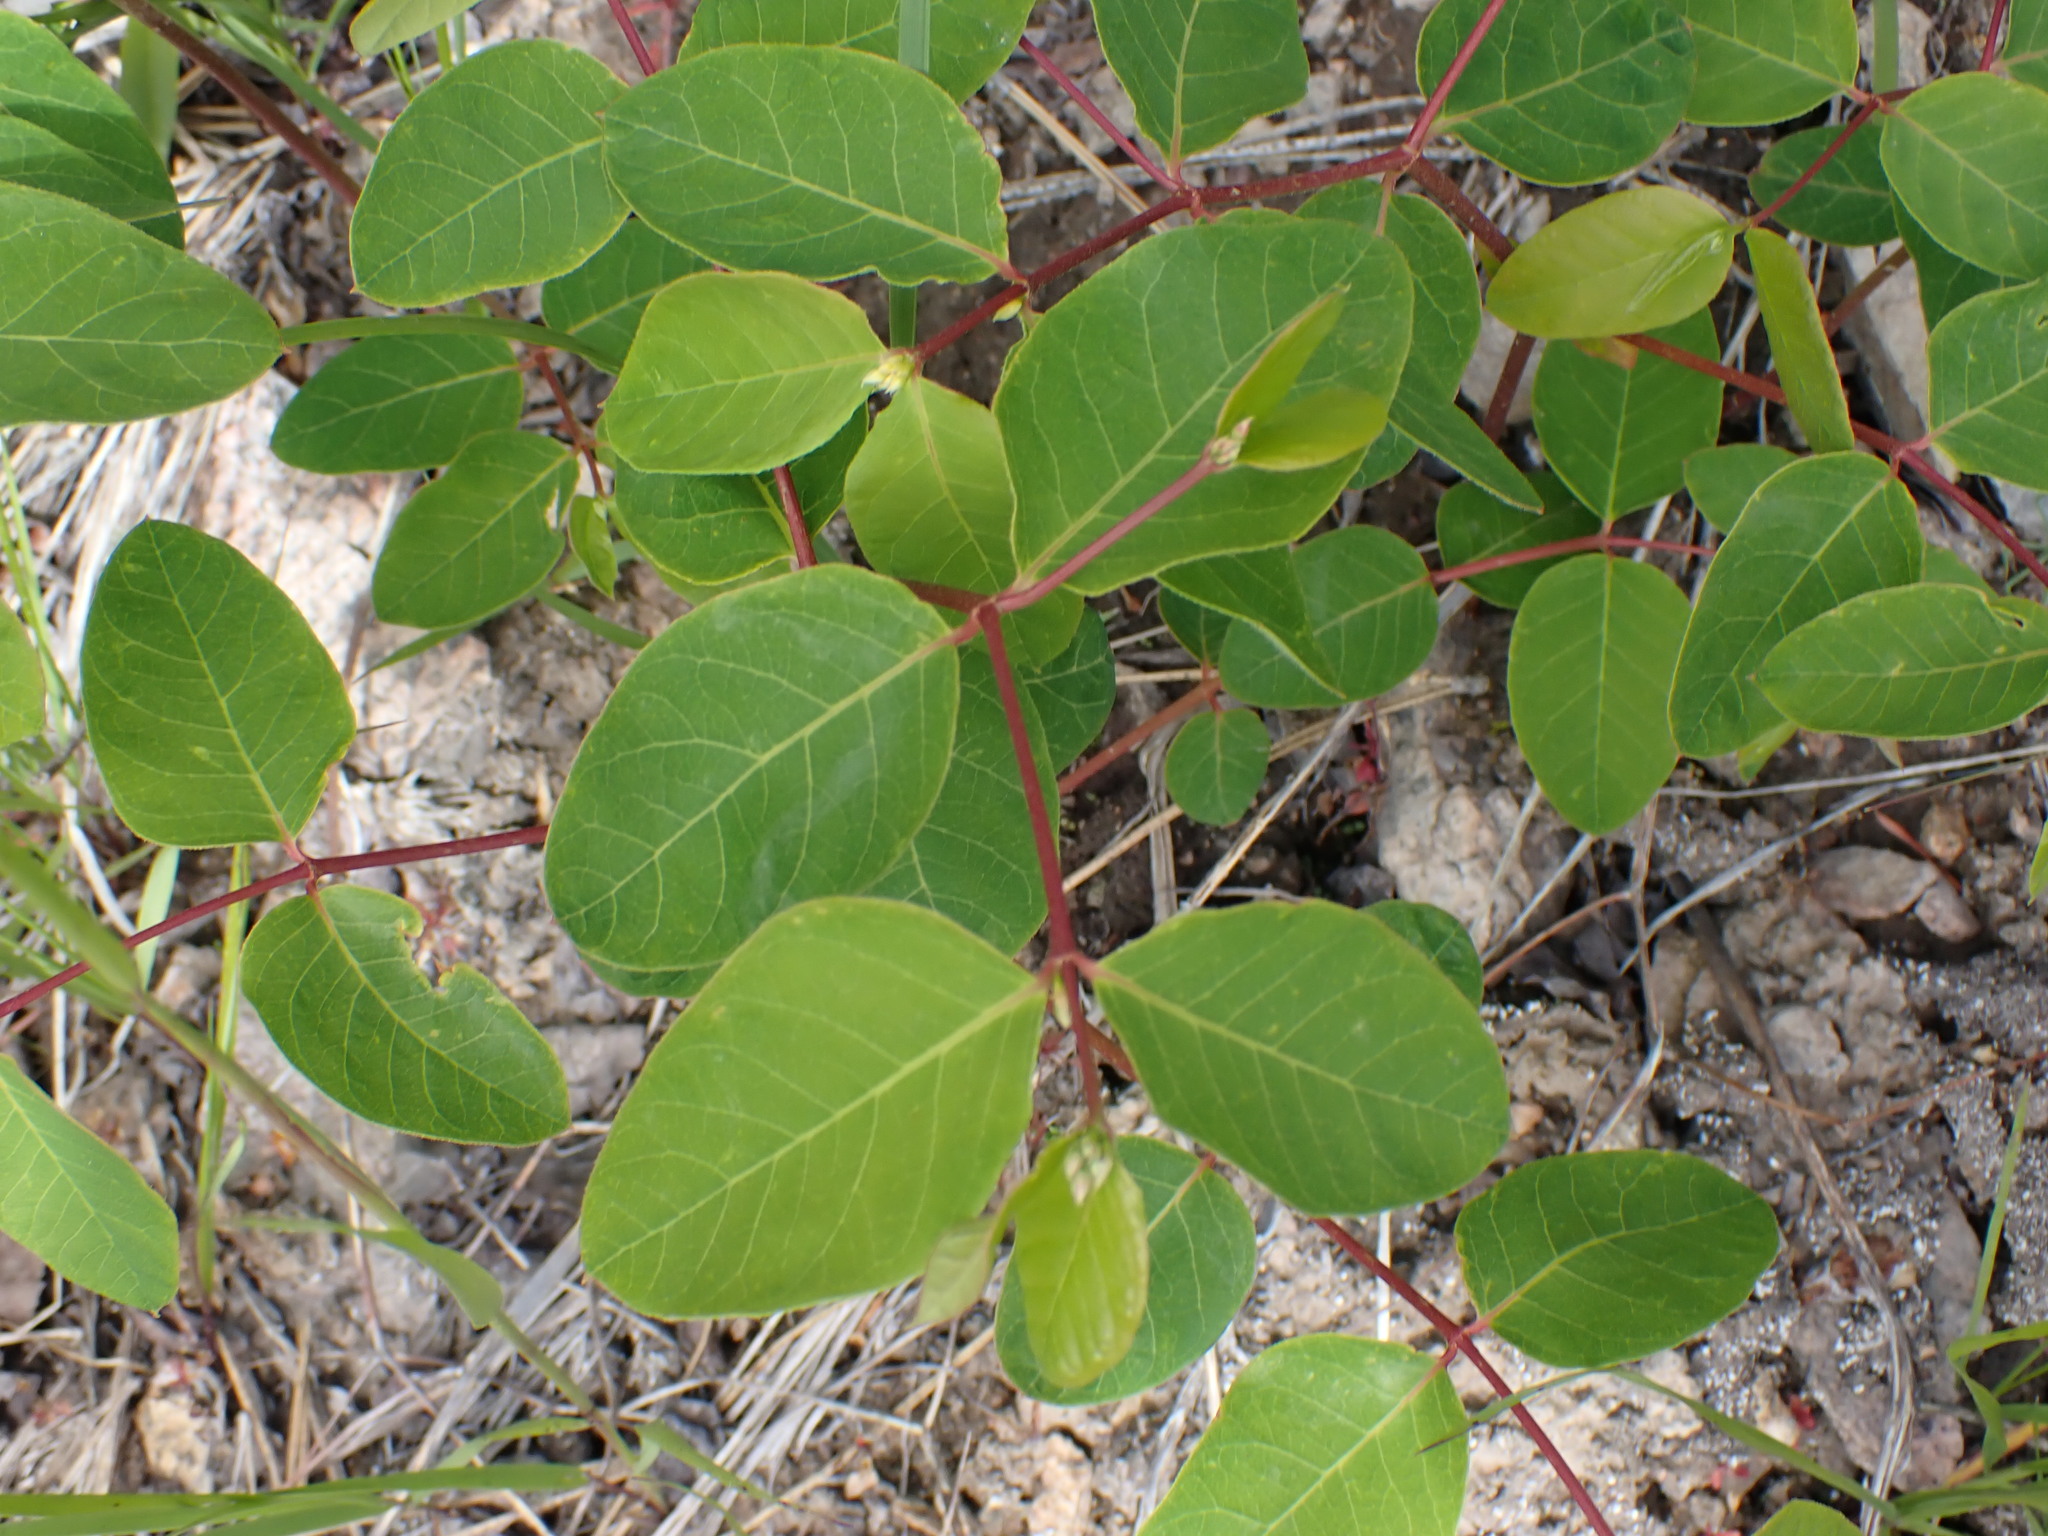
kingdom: Plantae
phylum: Tracheophyta
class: Magnoliopsida
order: Gentianales
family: Apocynaceae
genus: Apocynum
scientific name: Apocynum androsaemifolium
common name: Spreading dogbane
